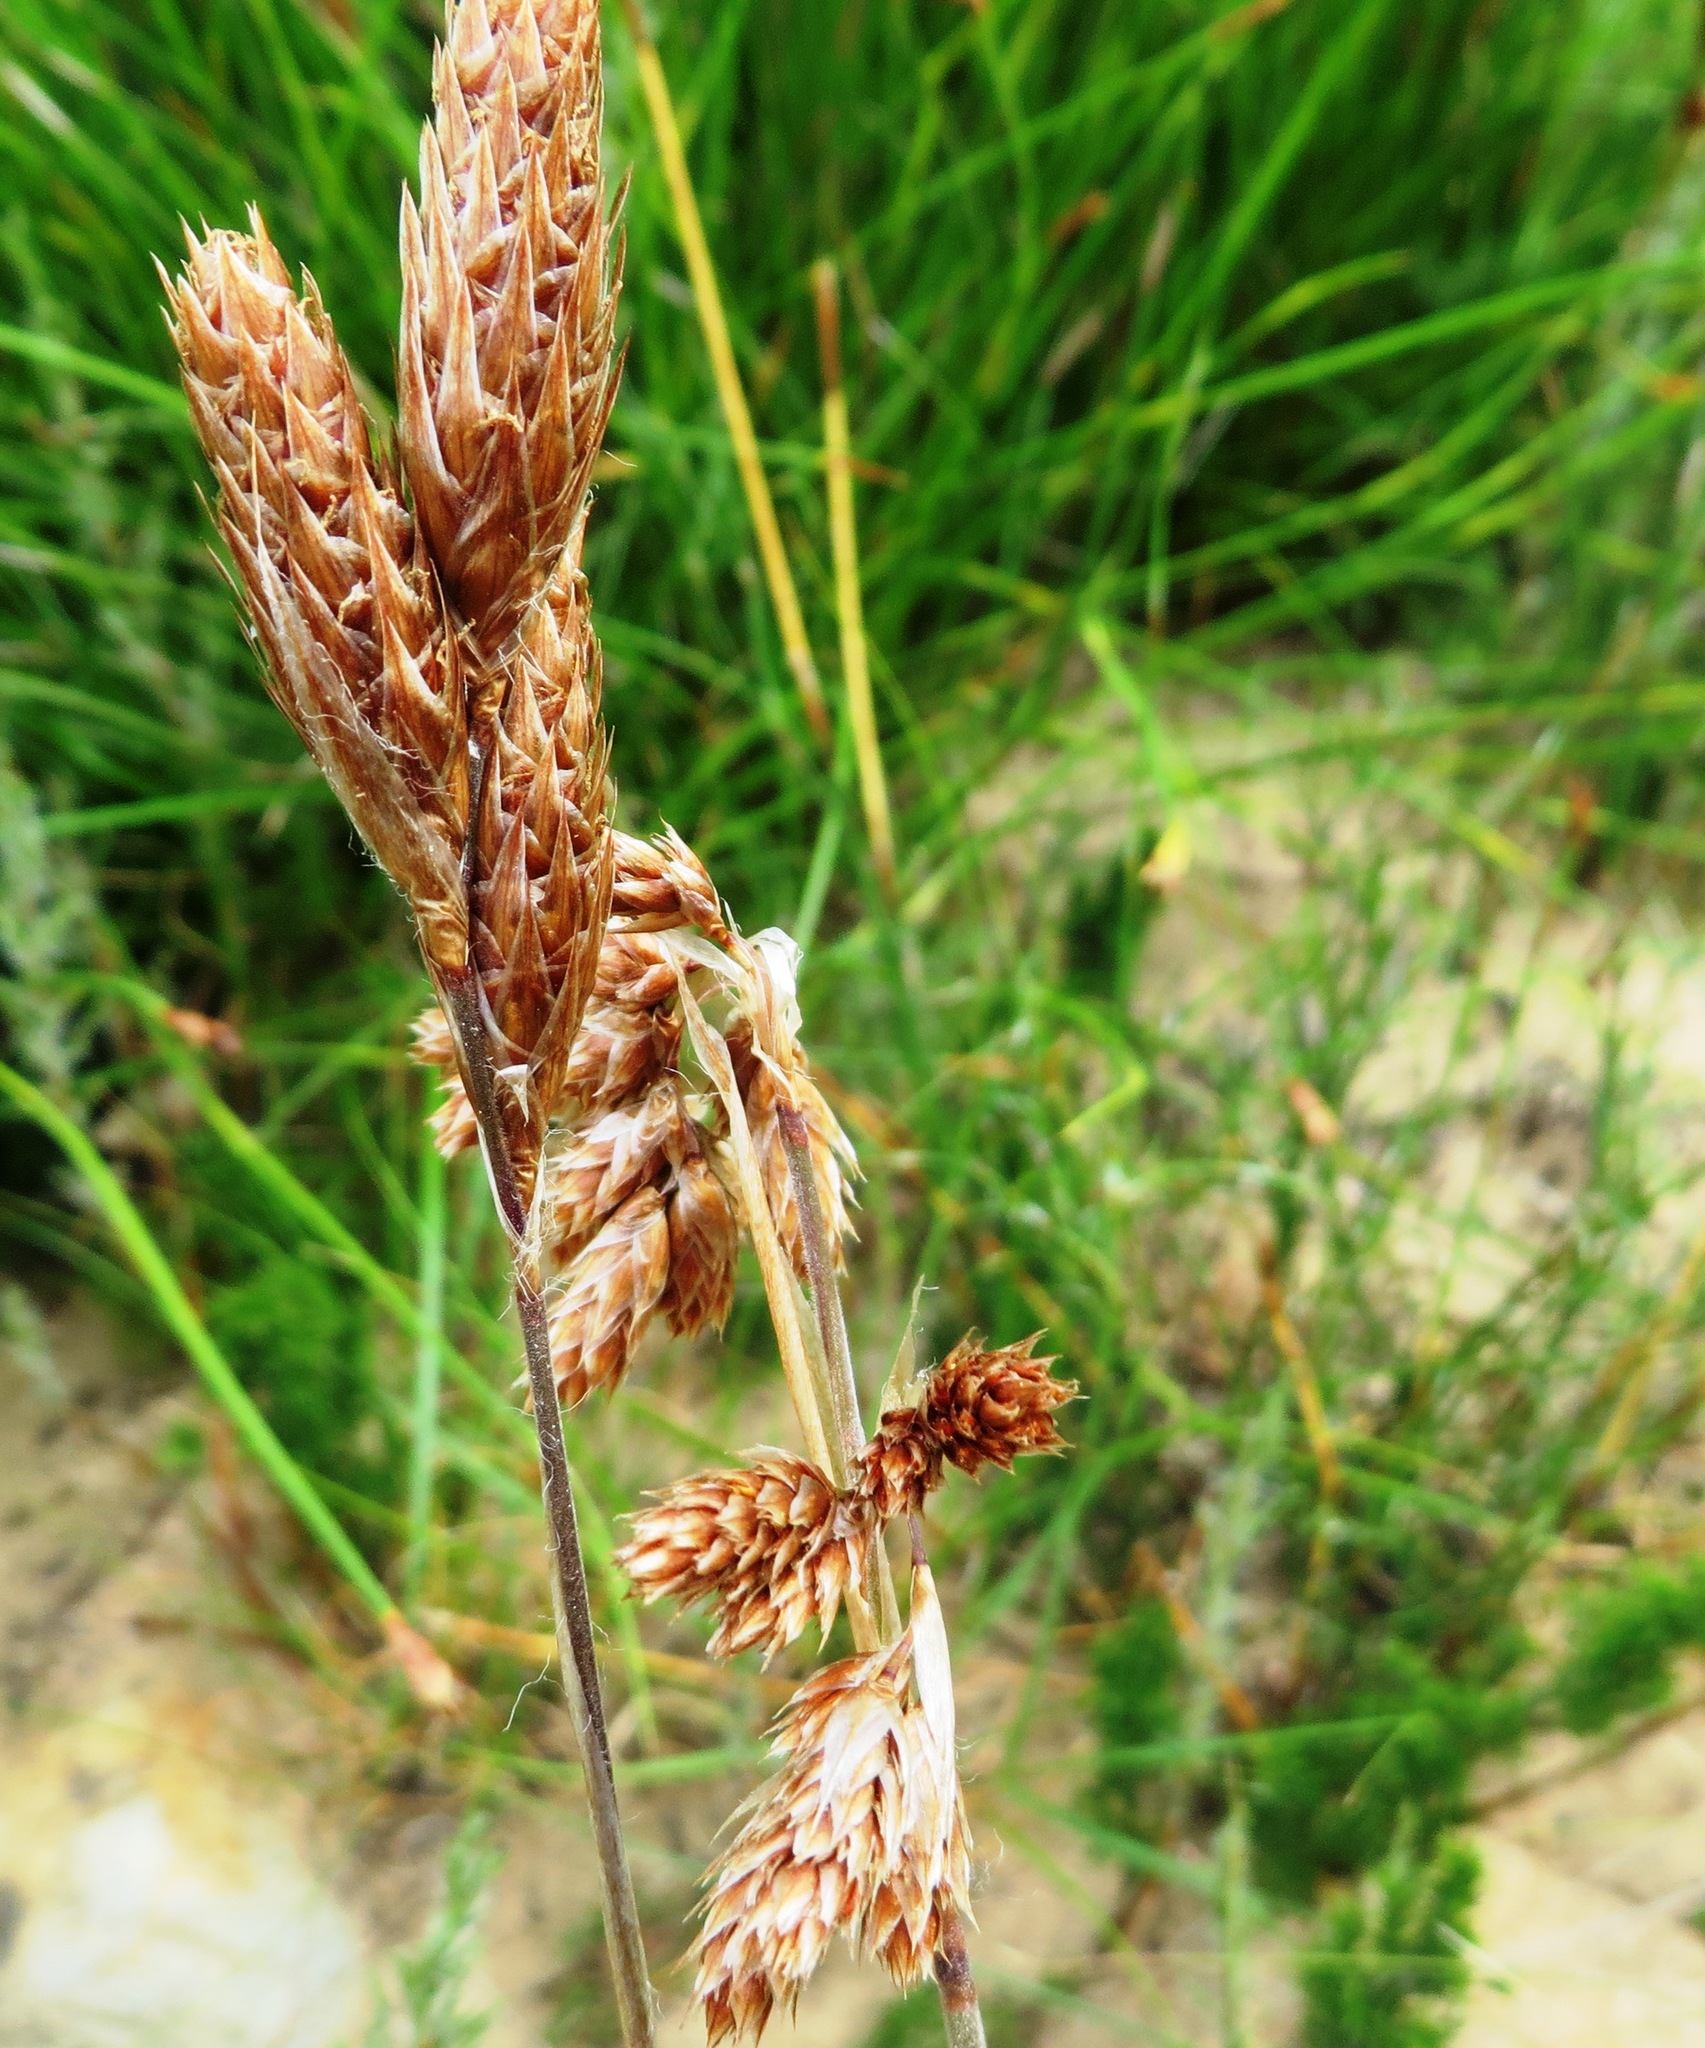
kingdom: Plantae
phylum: Tracheophyta
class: Liliopsida
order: Poales
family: Restionaceae
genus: Thamnochortus
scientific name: Thamnochortus fruticosus
